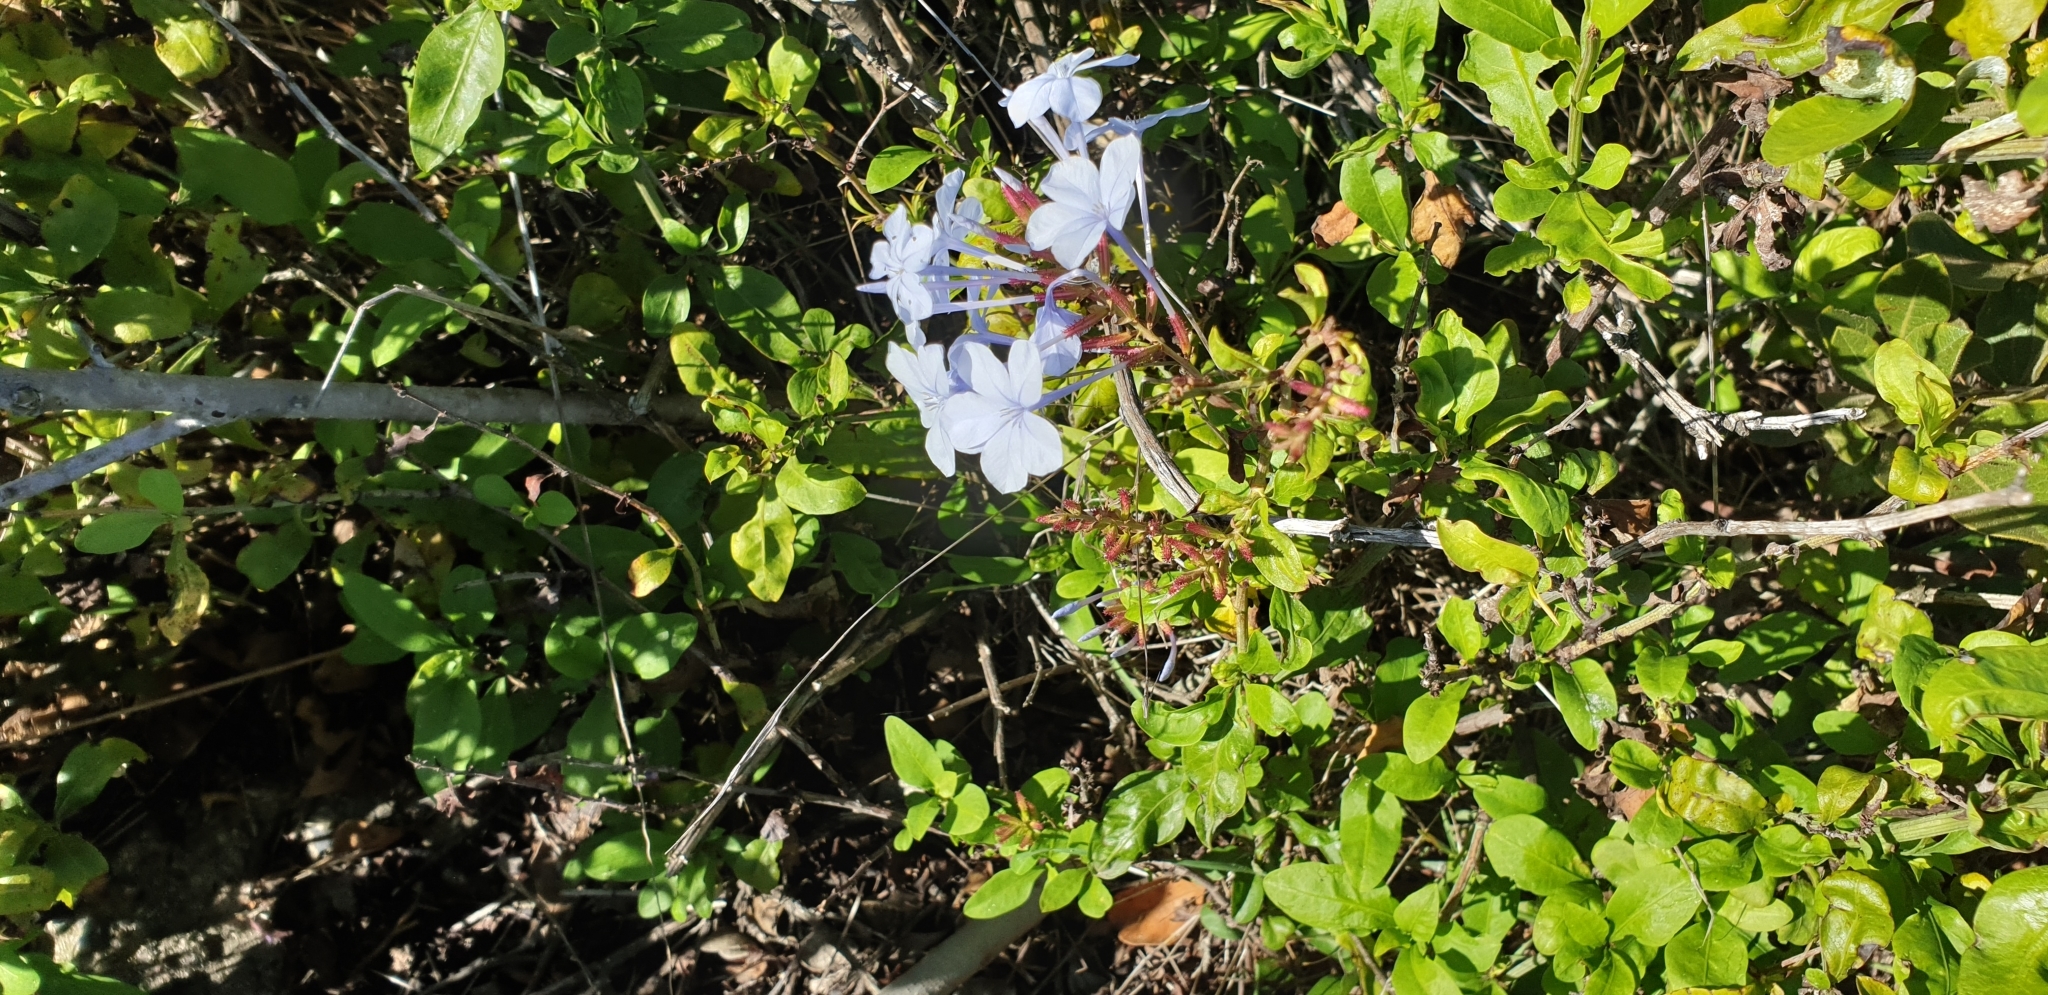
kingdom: Plantae
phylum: Tracheophyta
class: Magnoliopsida
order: Caryophyllales
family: Plumbaginaceae
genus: Plumbago
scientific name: Plumbago auriculata
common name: Cape leadwort
